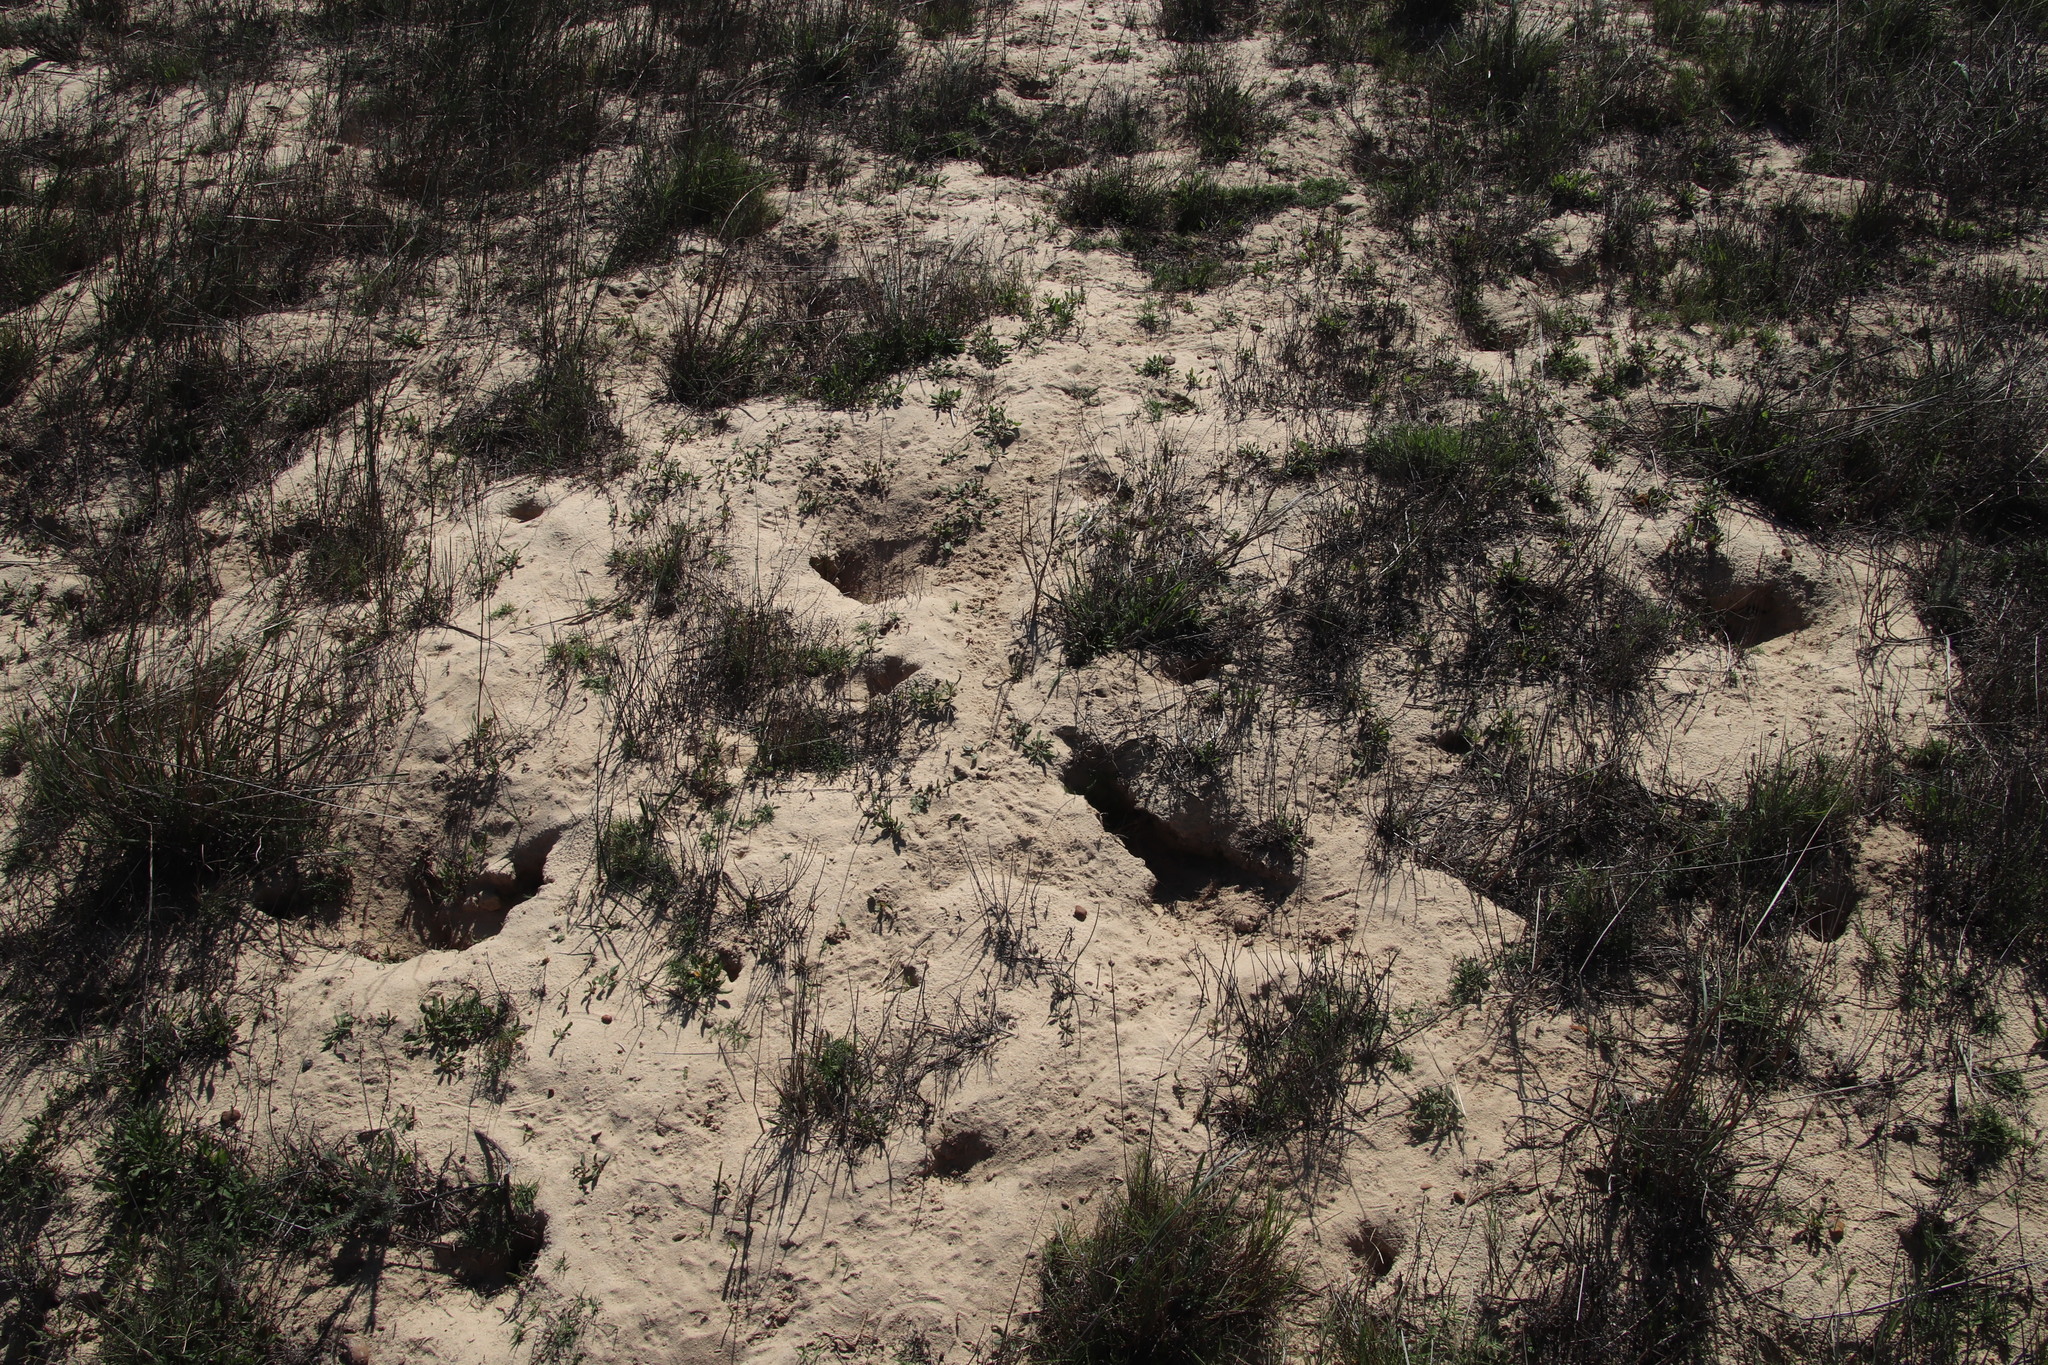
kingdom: Animalia
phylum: Chordata
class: Mammalia
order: Rodentia
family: Muridae
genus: Gerbilliscus
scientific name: Gerbilliscus afer
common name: Cape gerbil
